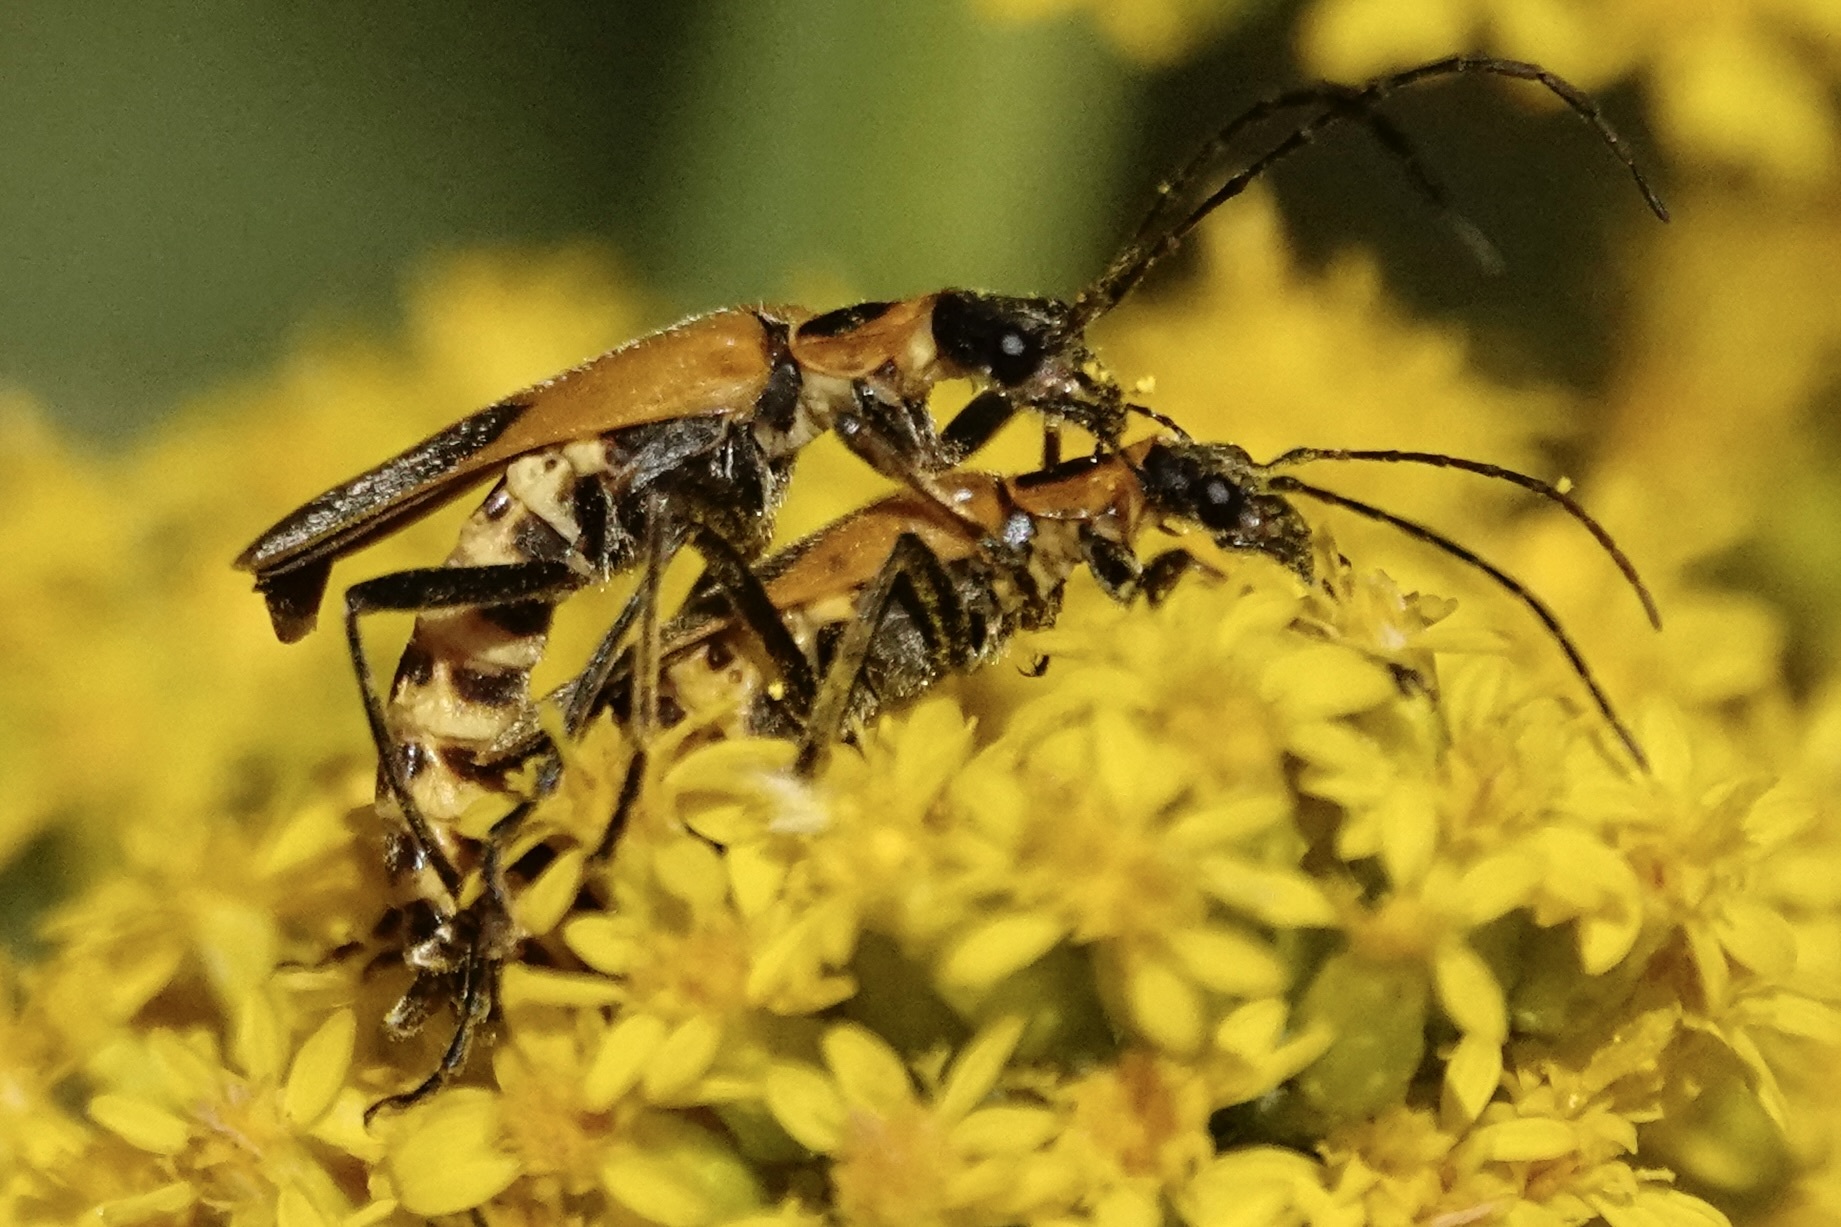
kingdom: Animalia
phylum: Arthropoda
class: Insecta
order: Coleoptera
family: Cantharidae
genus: Chauliognathus
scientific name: Chauliognathus pensylvanicus
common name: Goldenrod soldier beetle
